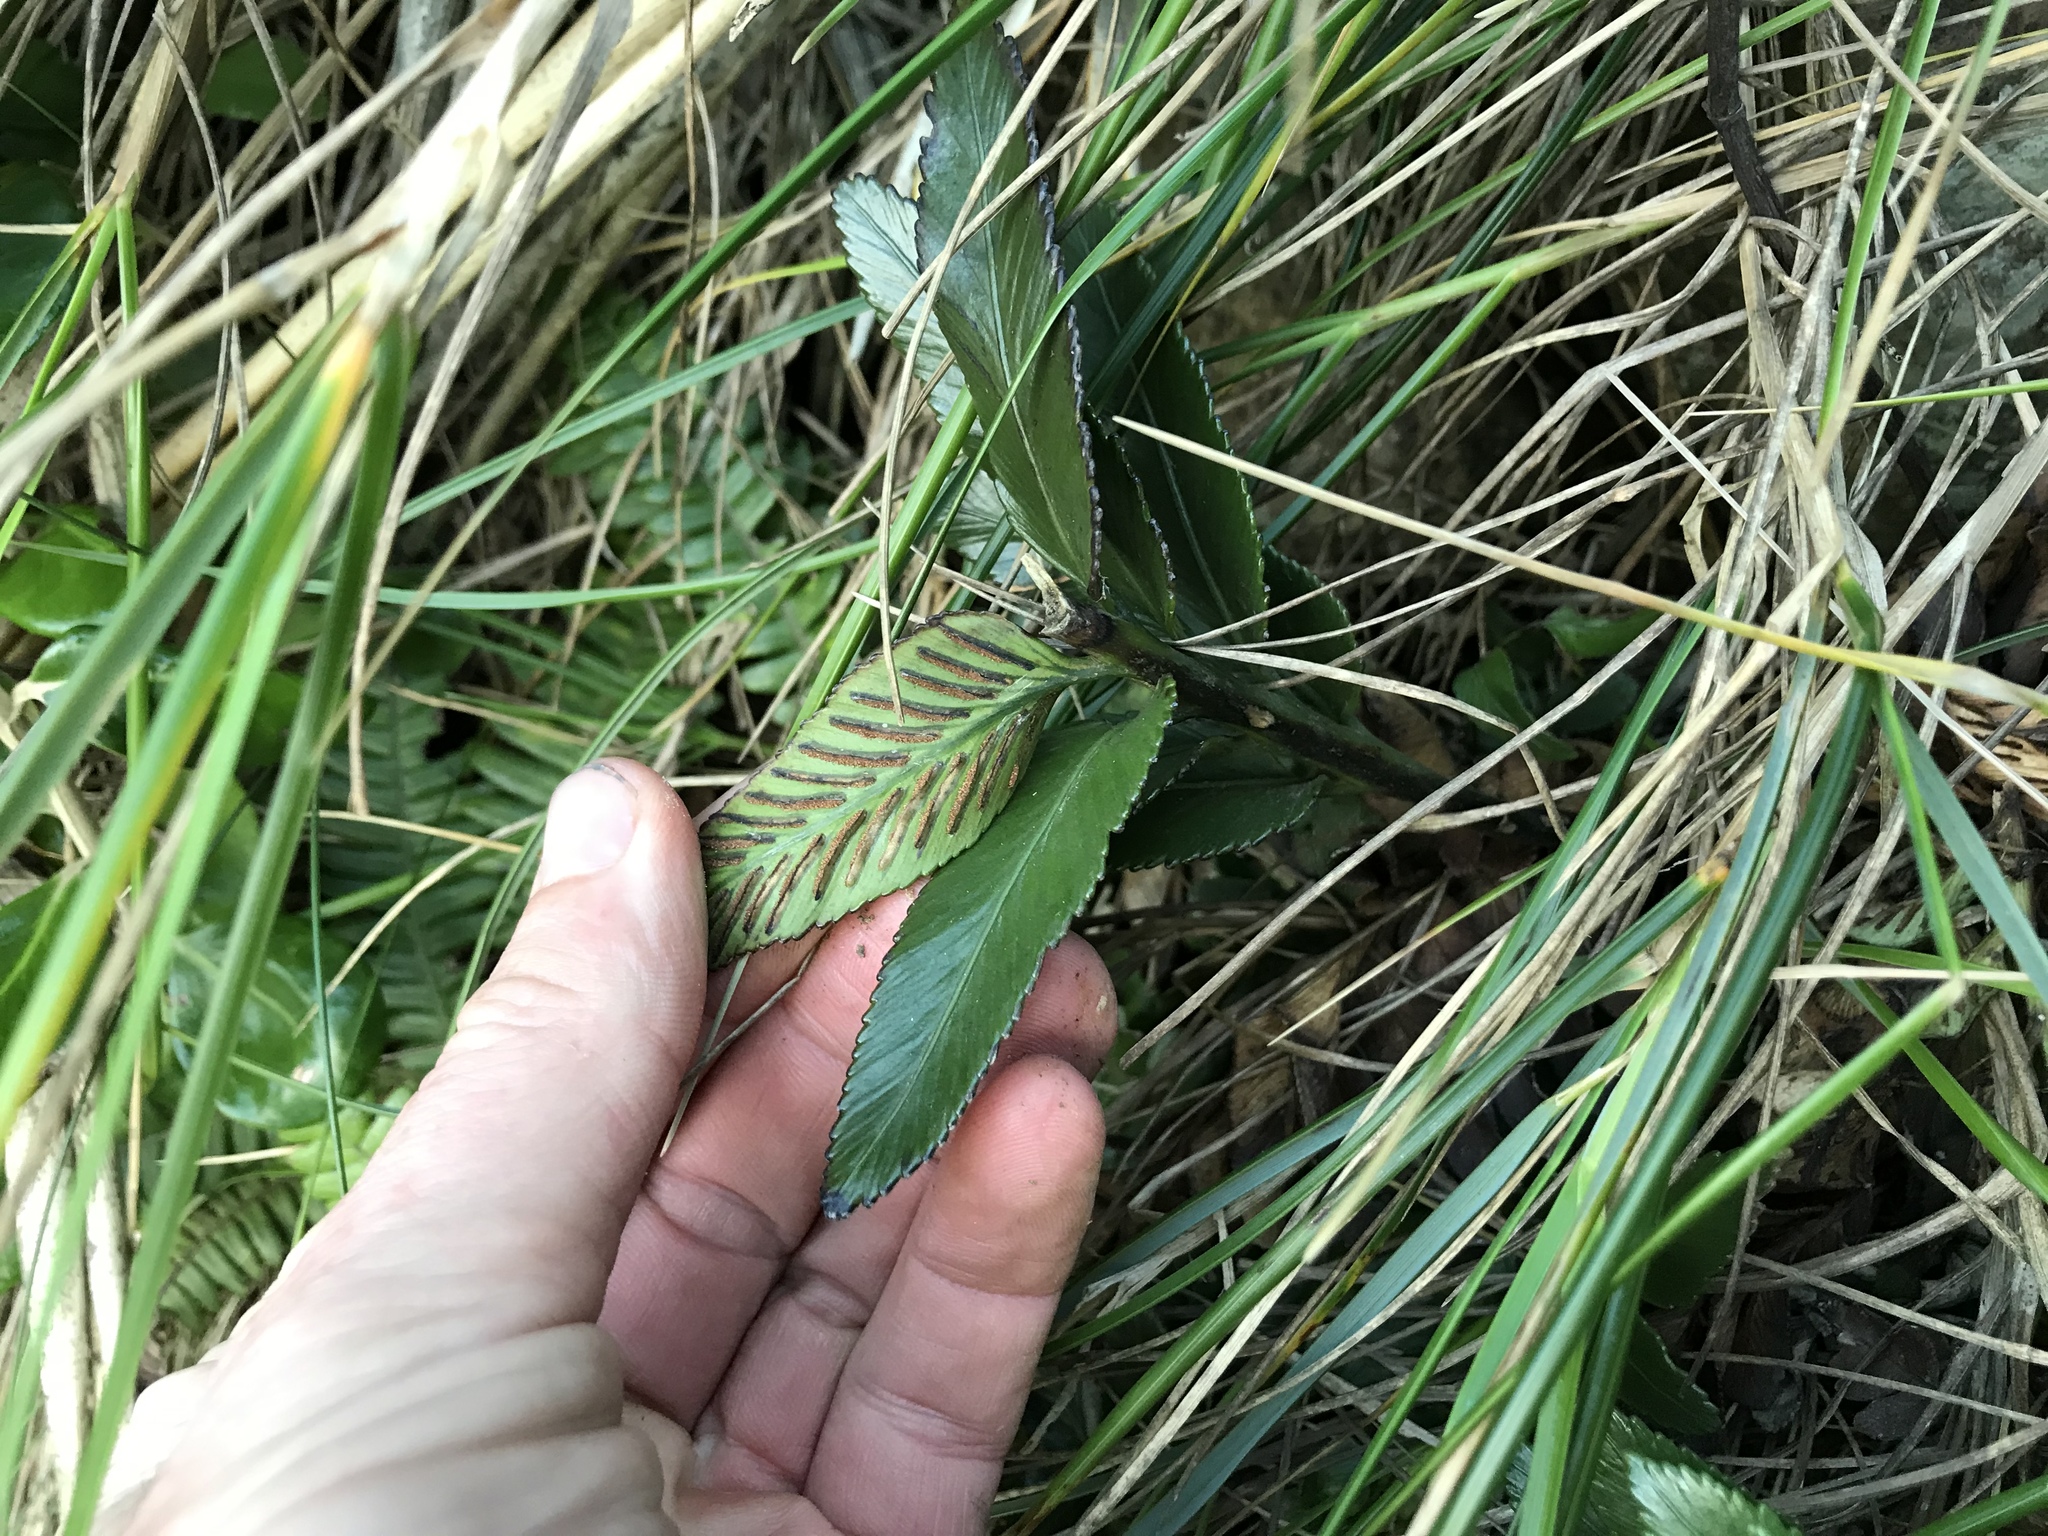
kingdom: Plantae
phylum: Tracheophyta
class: Polypodiopsida
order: Polypodiales
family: Aspleniaceae
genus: Asplenium
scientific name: Asplenium obtusatum
